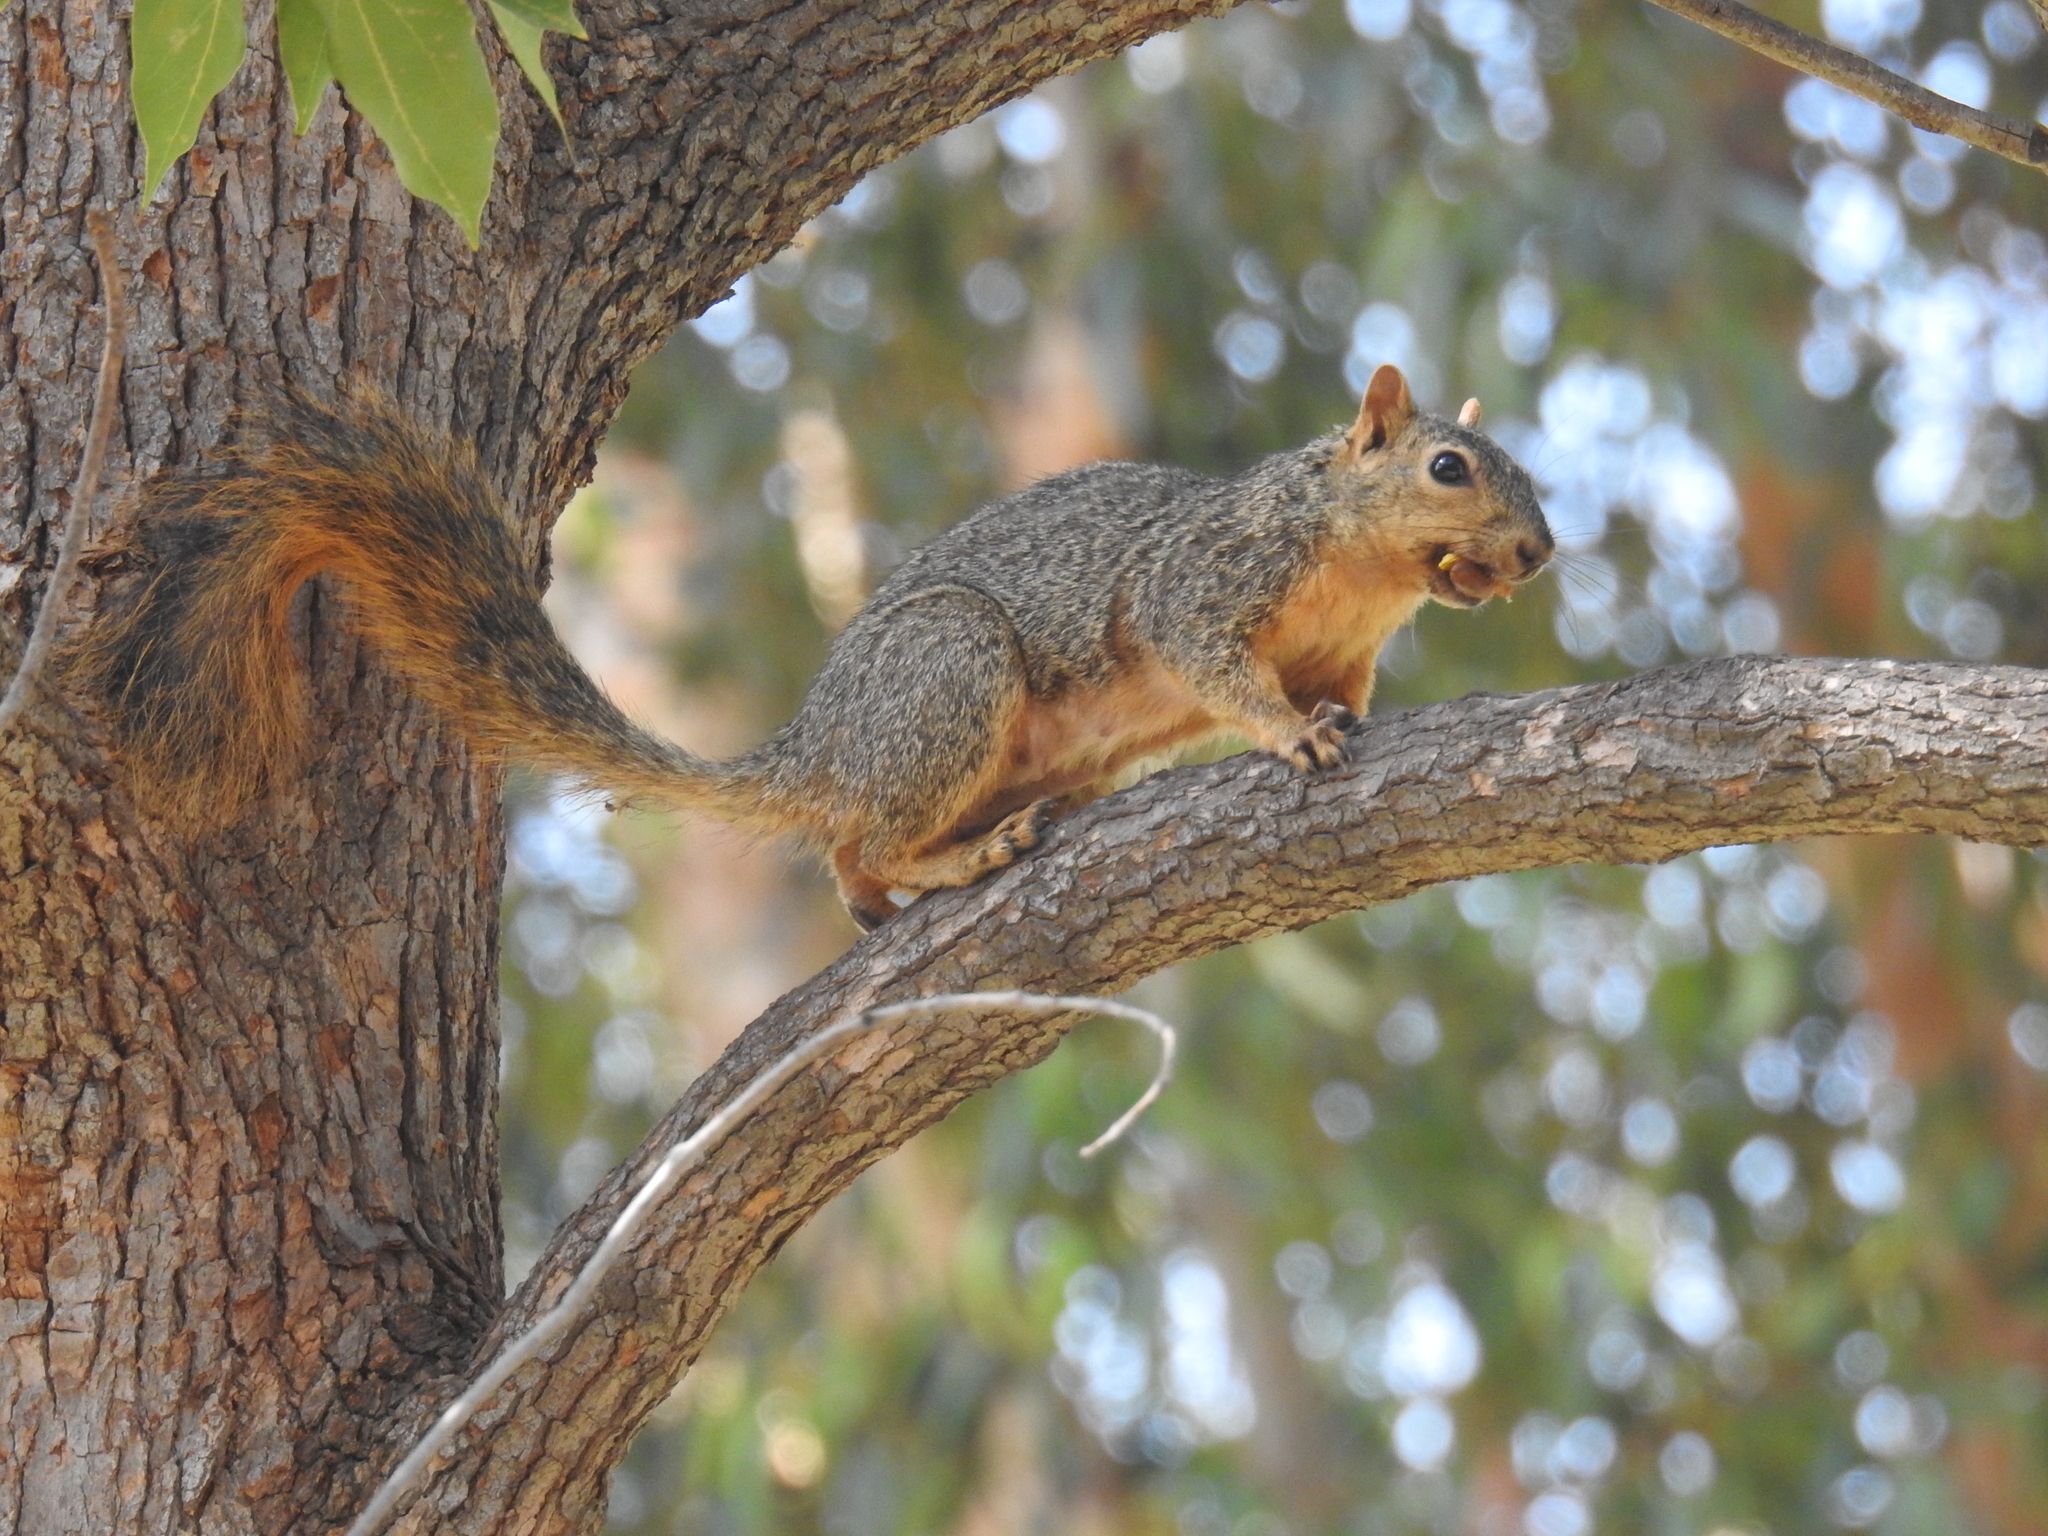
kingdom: Animalia
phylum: Chordata
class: Mammalia
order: Rodentia
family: Sciuridae
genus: Sciurus
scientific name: Sciurus niger
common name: Fox squirrel
